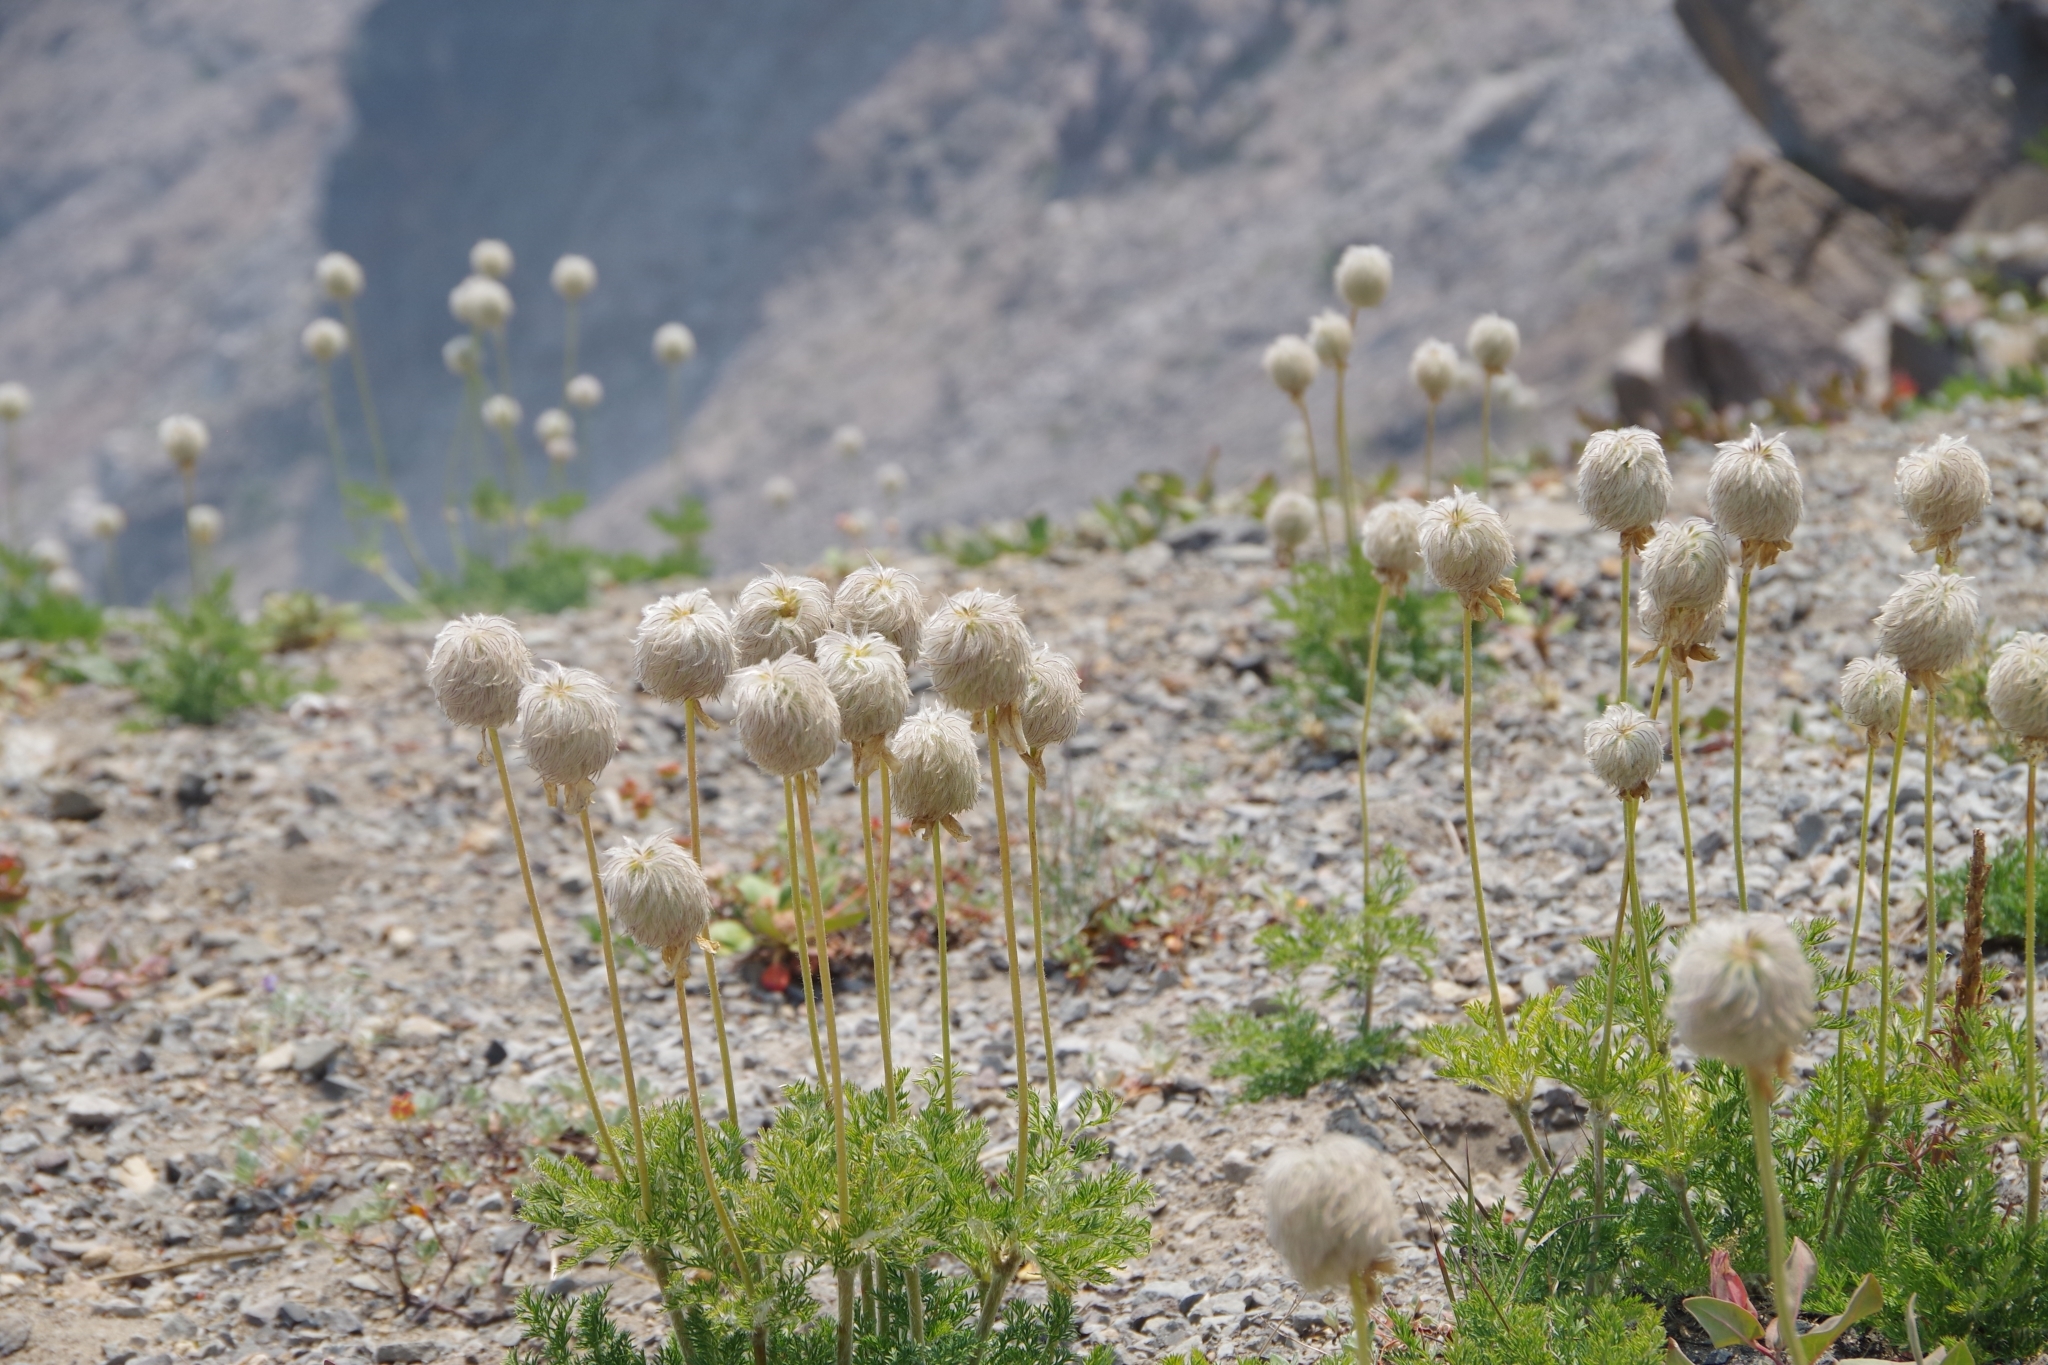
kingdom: Plantae
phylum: Tracheophyta
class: Magnoliopsida
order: Ranunculales
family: Ranunculaceae
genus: Pulsatilla
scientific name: Pulsatilla occidentalis
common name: Mountain pasqueflower
